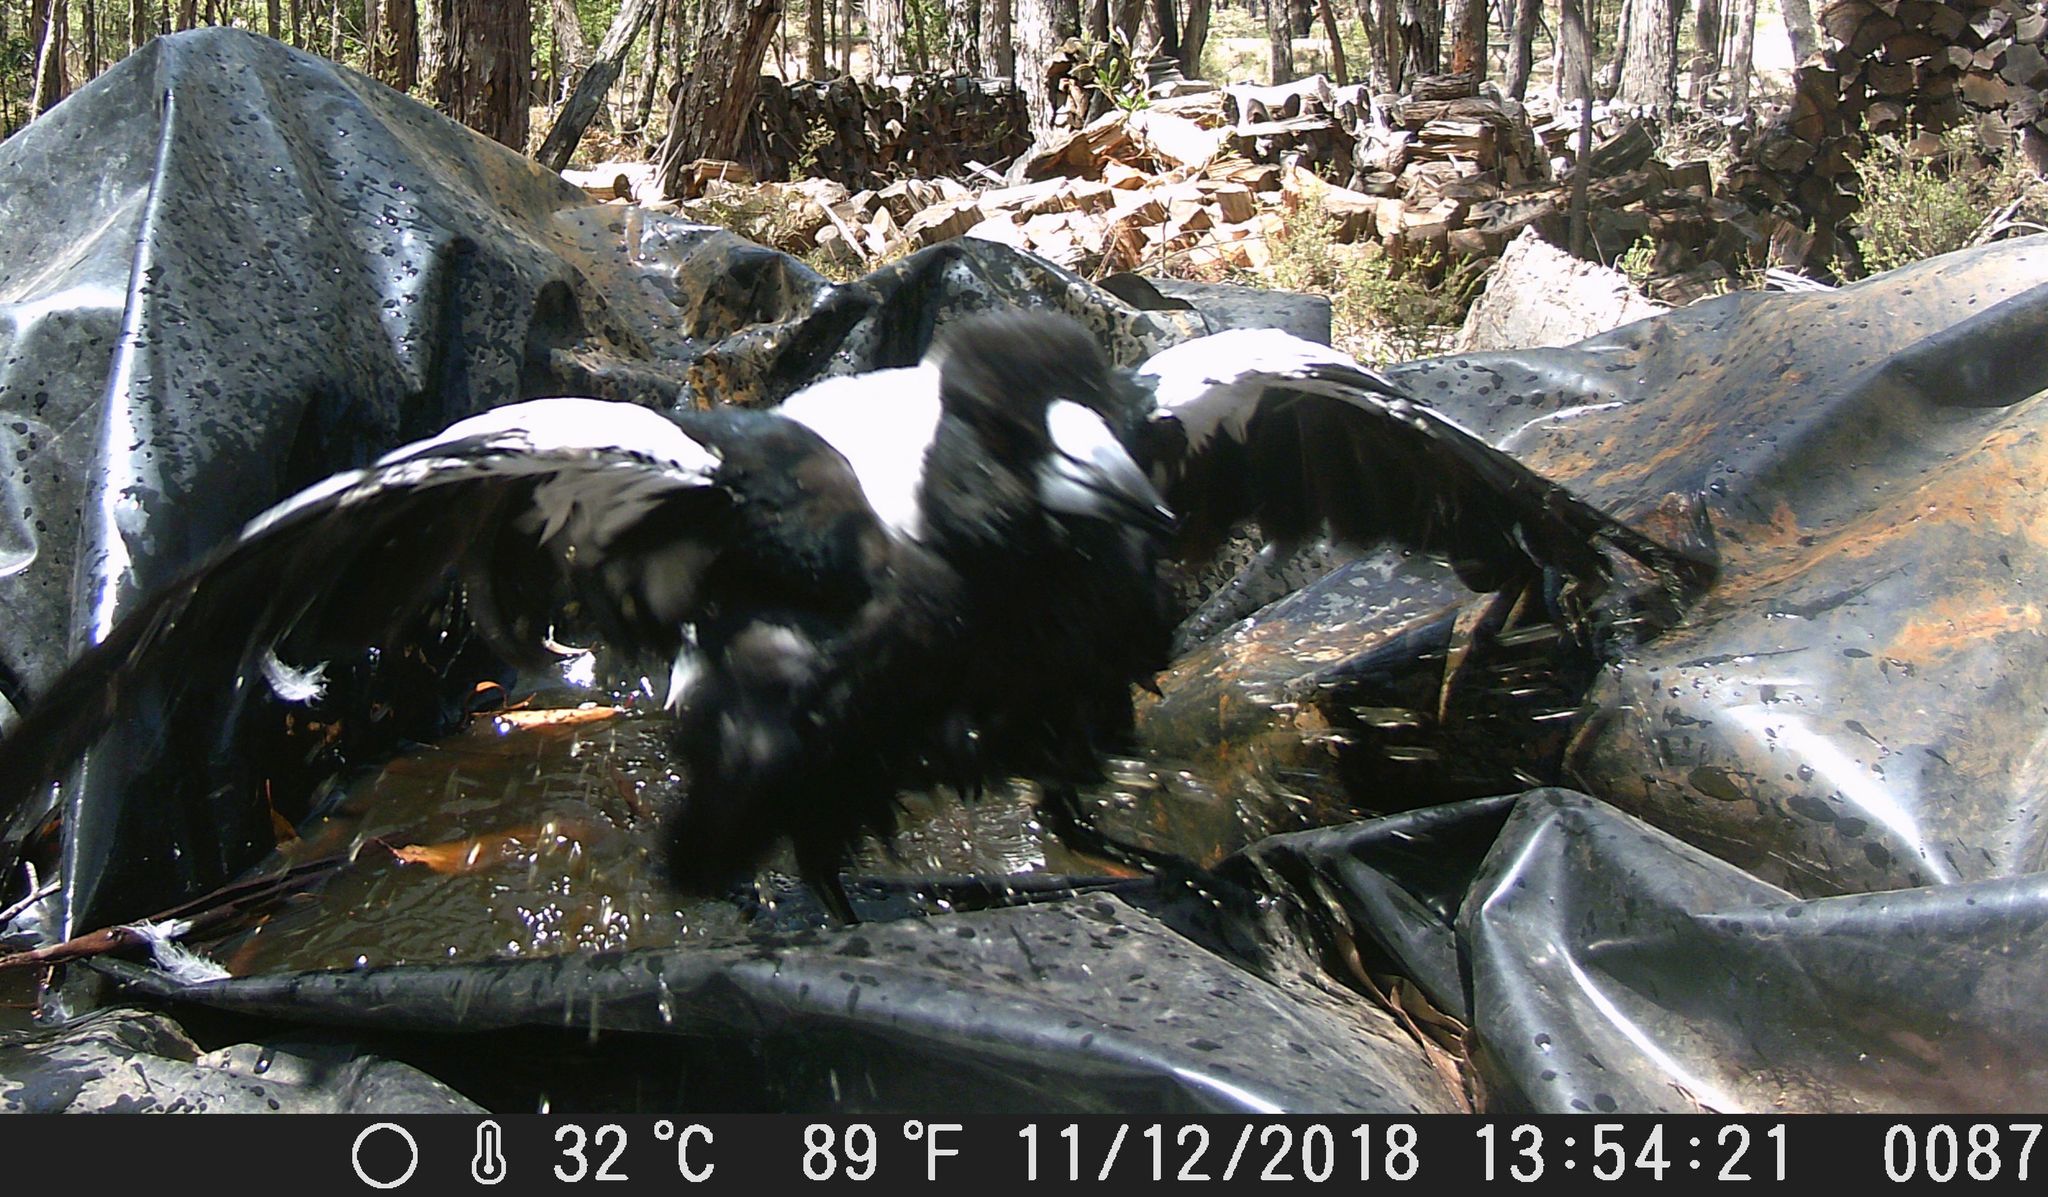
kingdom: Animalia
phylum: Chordata
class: Aves
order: Passeriformes
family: Cracticidae
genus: Gymnorhina
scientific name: Gymnorhina tibicen
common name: Australian magpie
